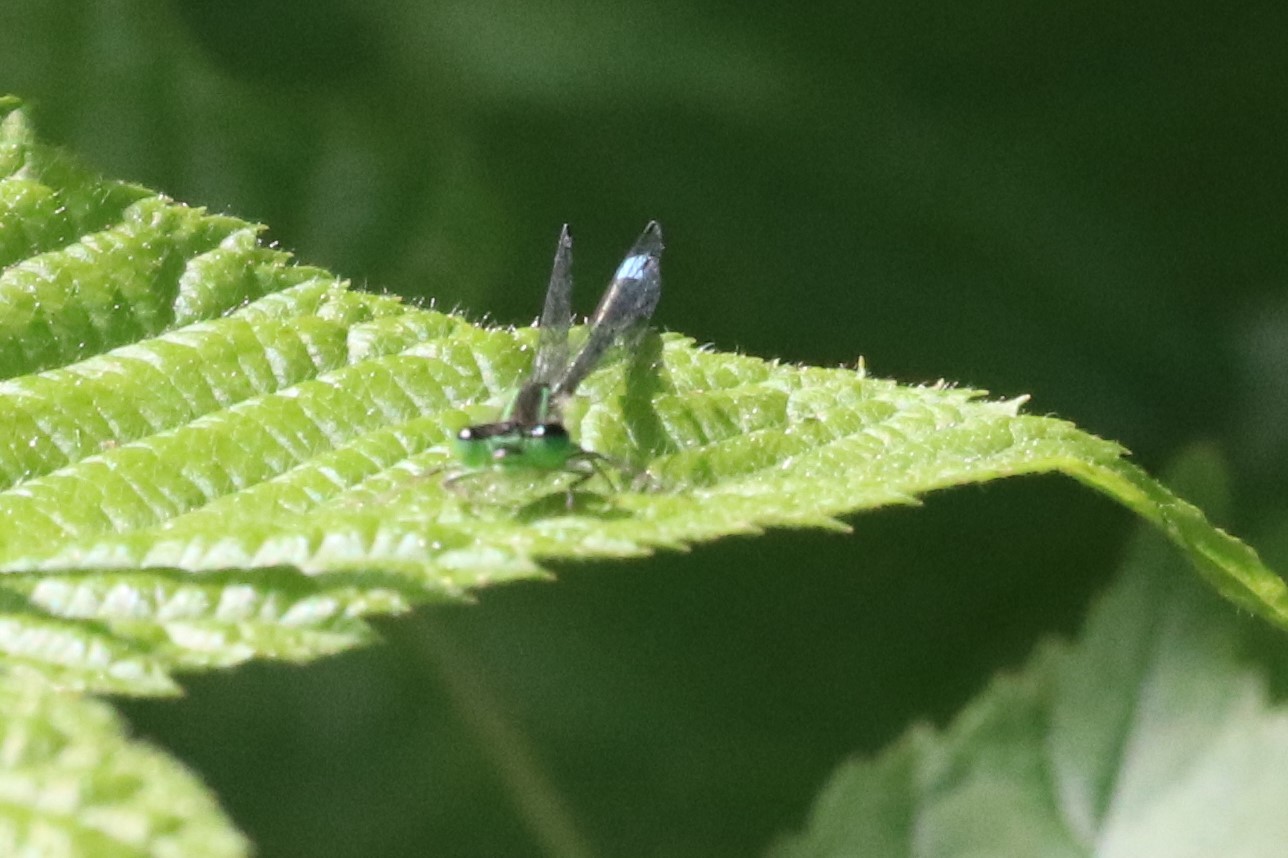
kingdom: Animalia
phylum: Arthropoda
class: Insecta
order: Odonata
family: Coenagrionidae
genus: Ischnura
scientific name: Ischnura verticalis
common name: Eastern forktail
